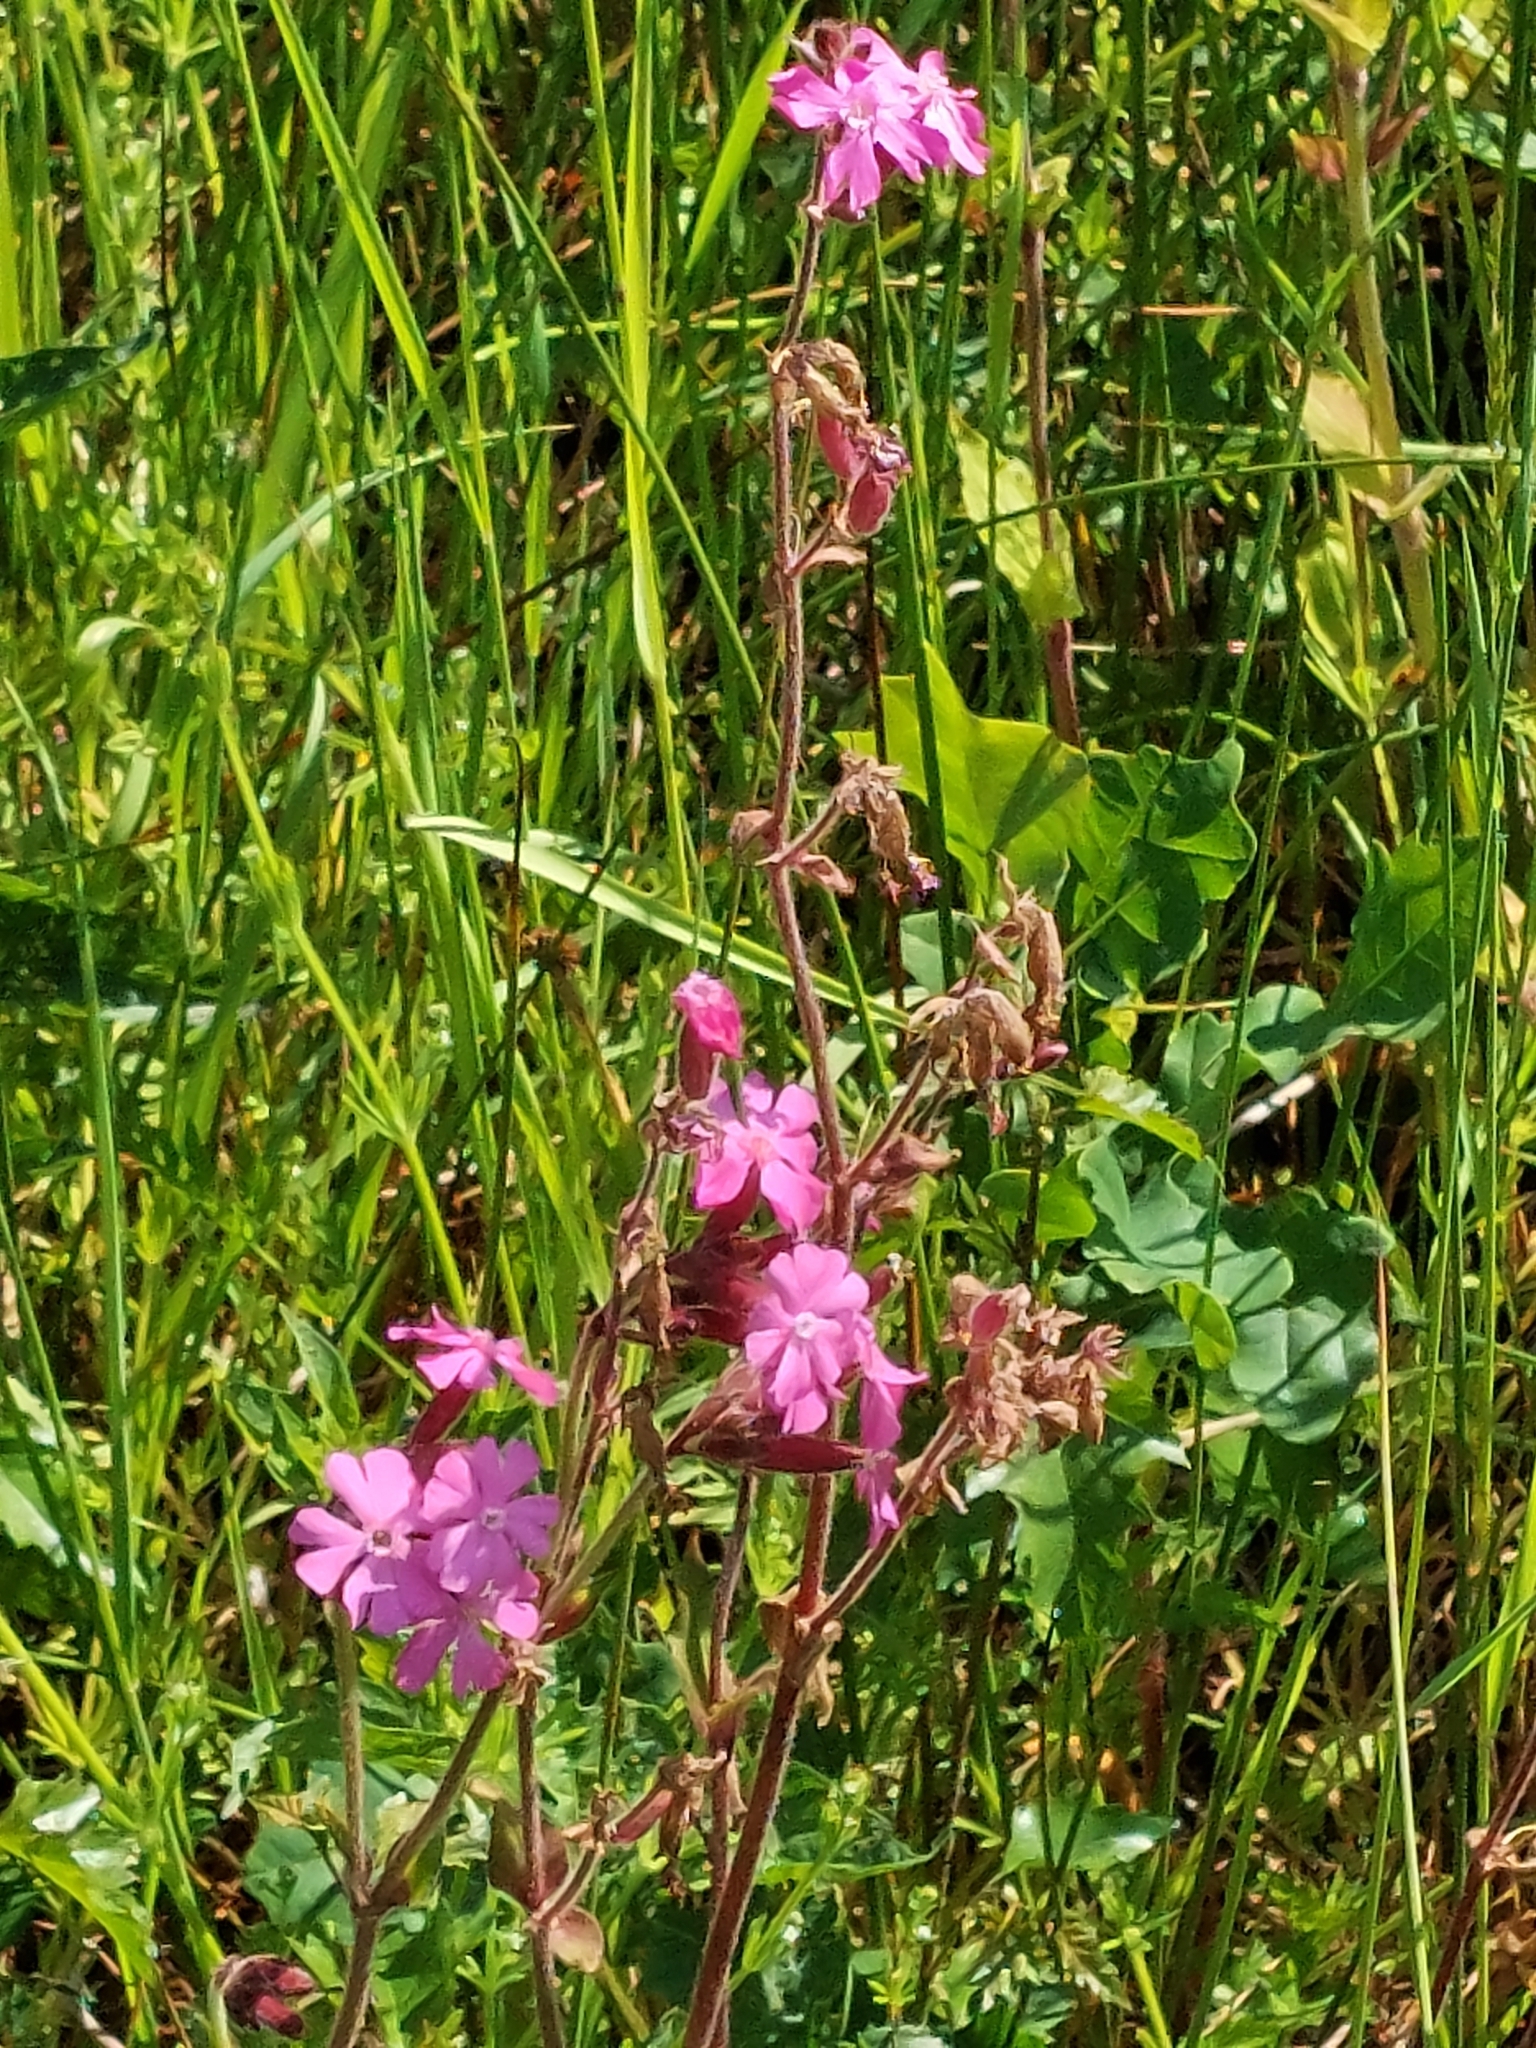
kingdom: Plantae
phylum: Tracheophyta
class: Magnoliopsida
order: Caryophyllales
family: Caryophyllaceae
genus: Silene
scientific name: Silene dioica
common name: Red campion
